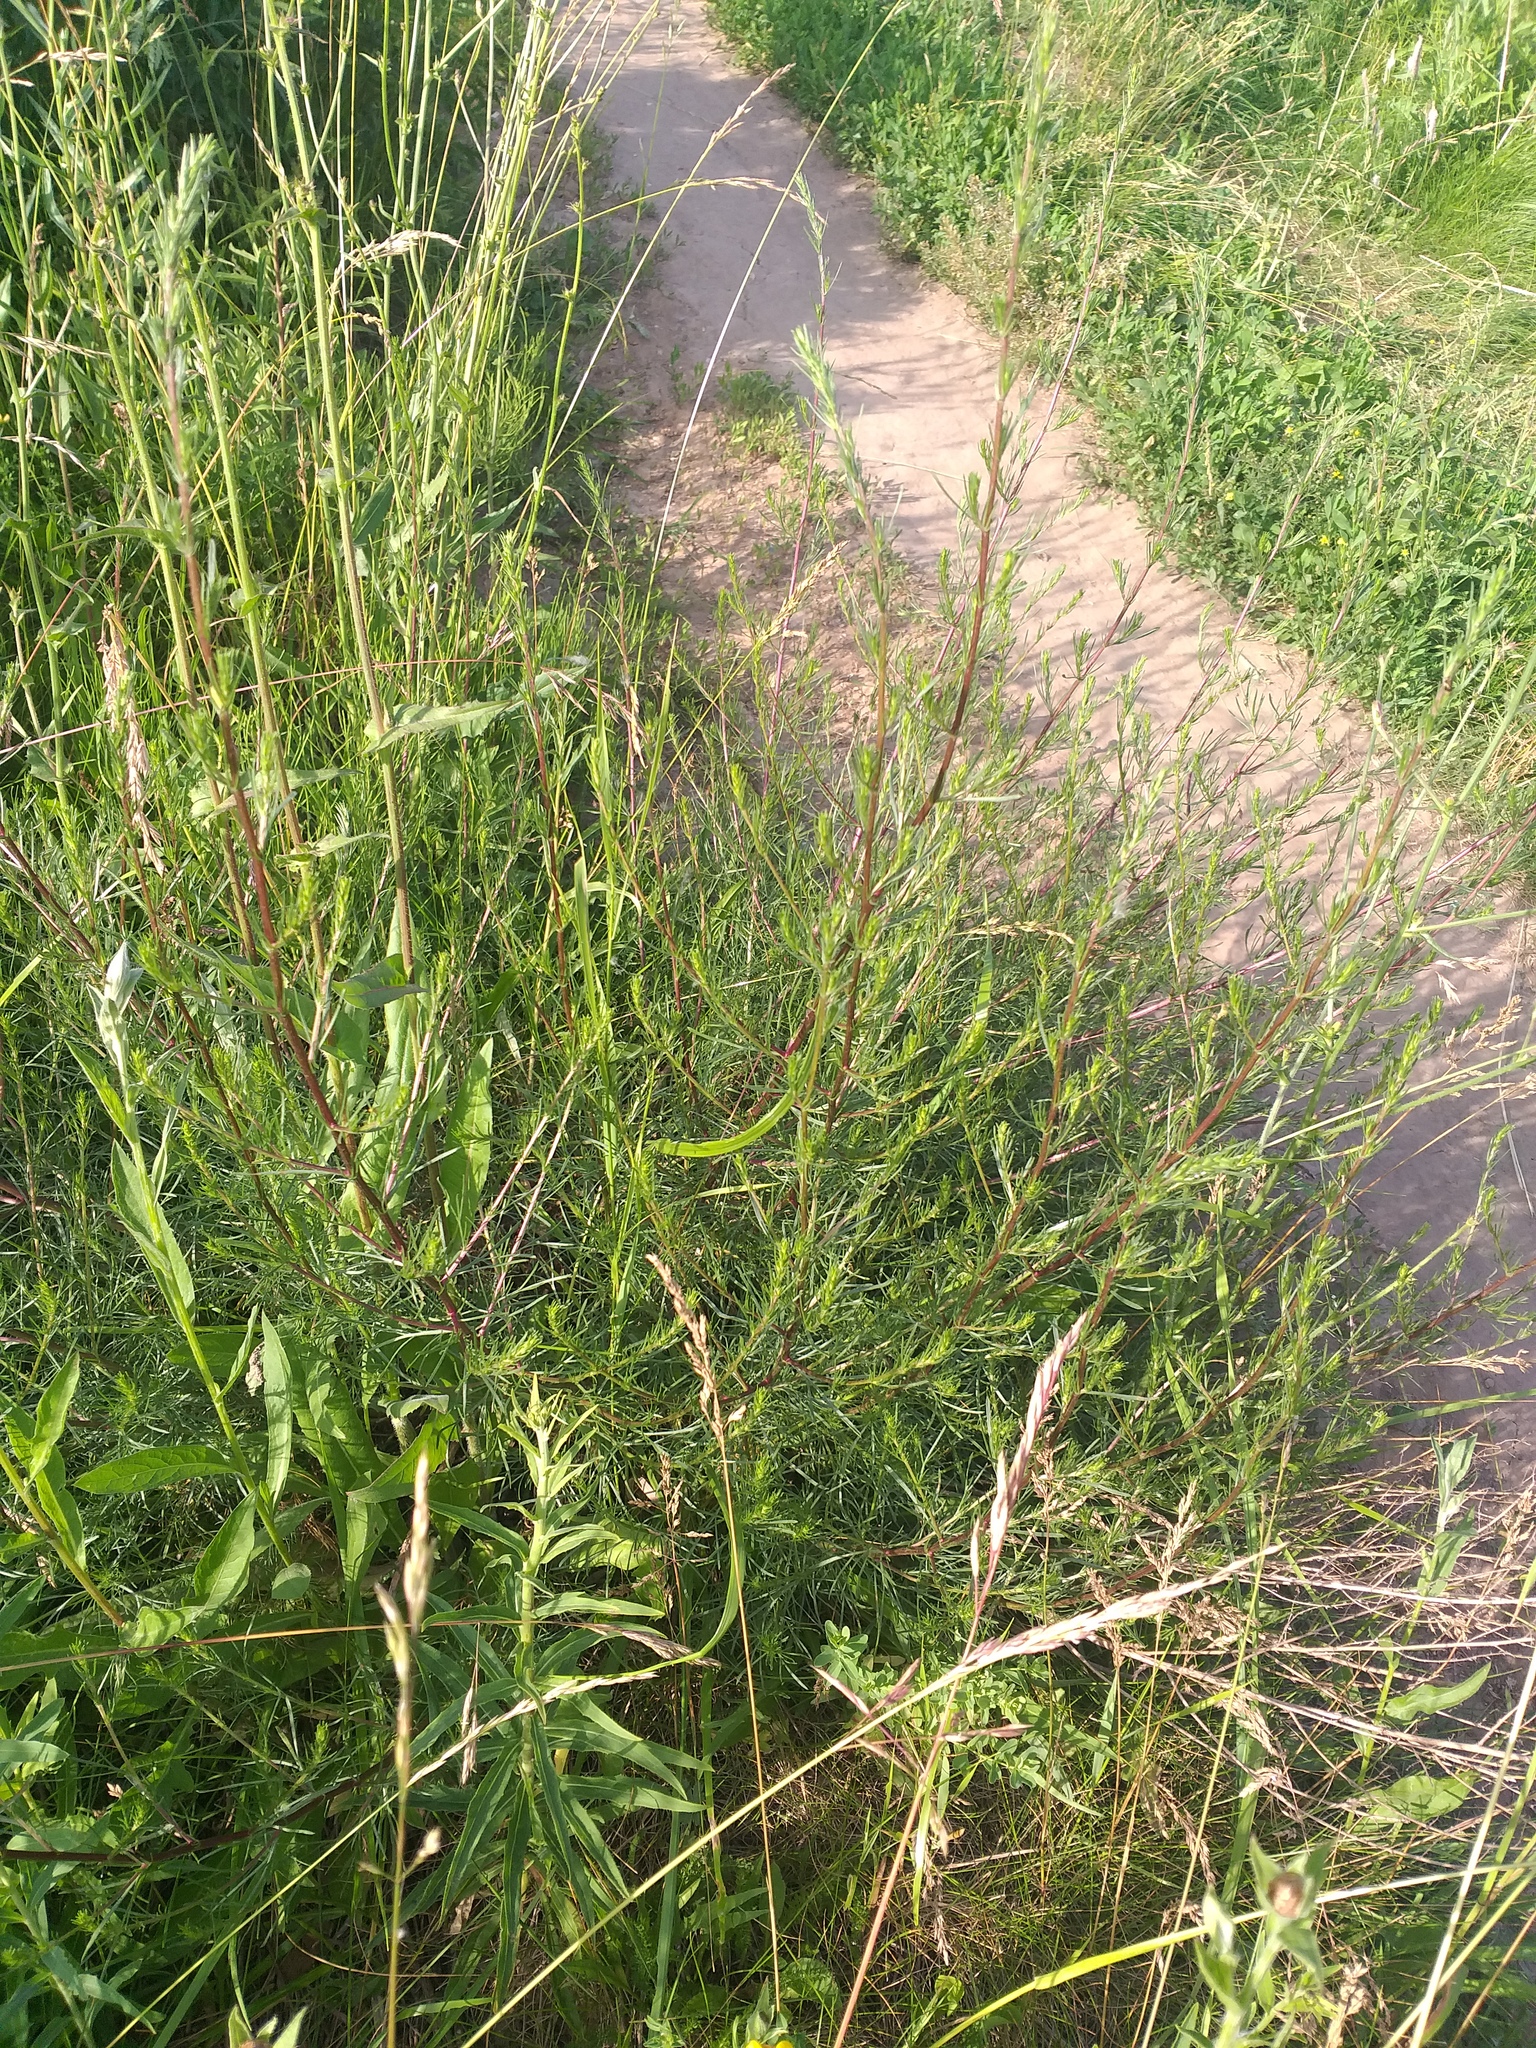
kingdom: Plantae
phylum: Tracheophyta
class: Magnoliopsida
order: Asterales
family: Asteraceae
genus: Artemisia
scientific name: Artemisia campestris
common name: Field wormwood
